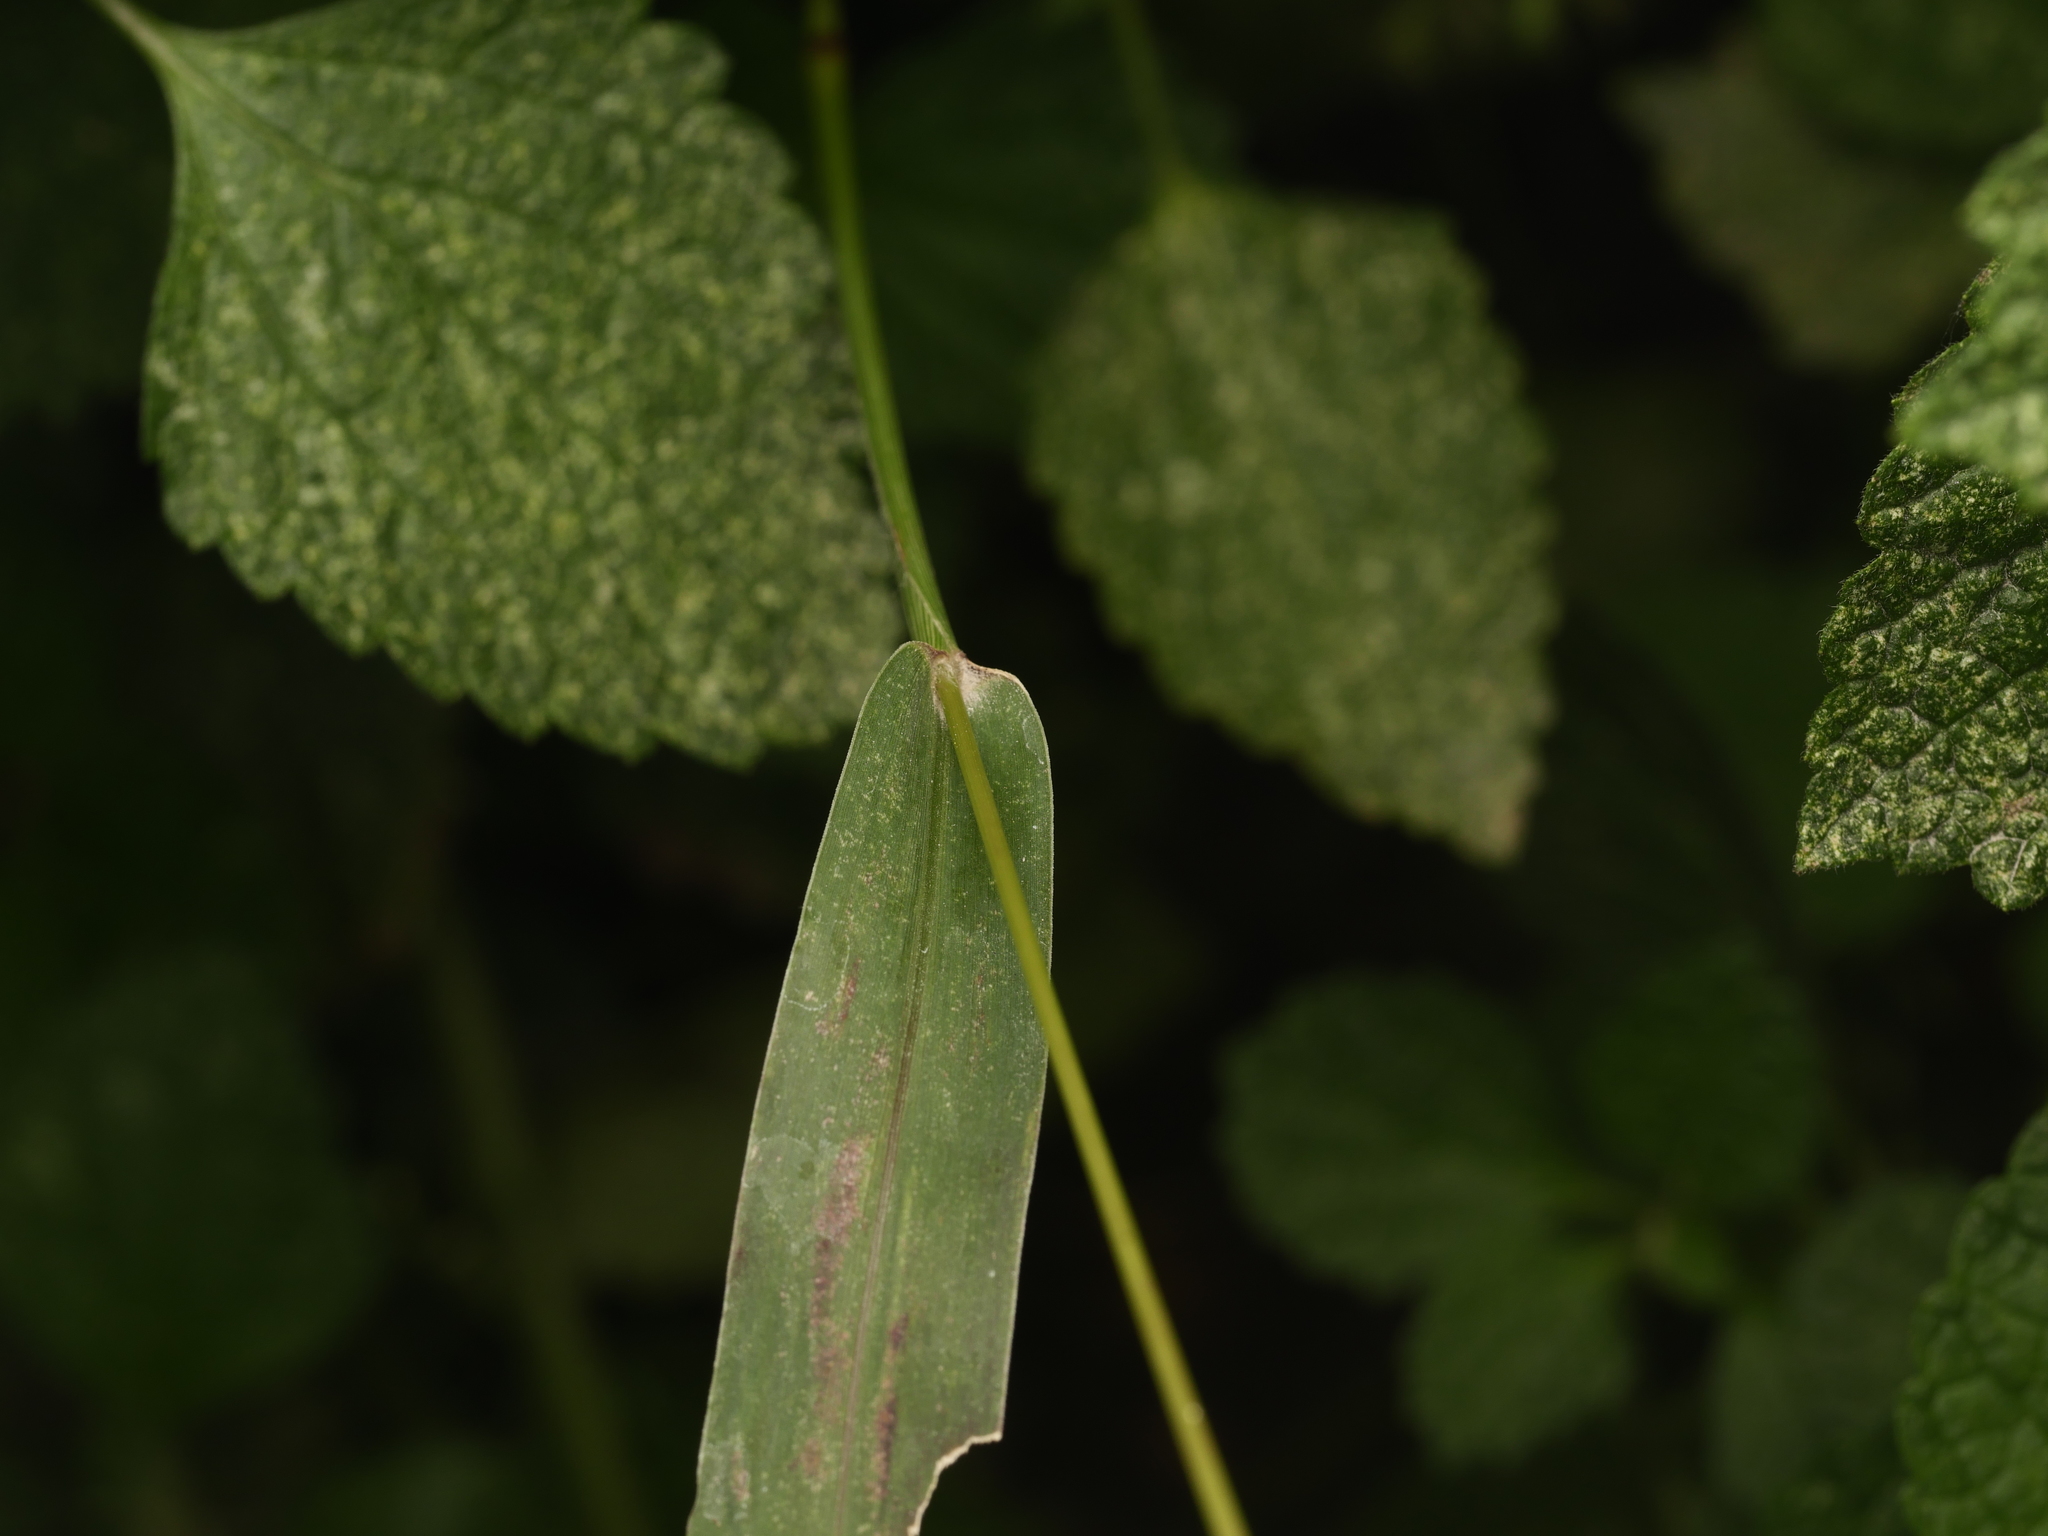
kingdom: Plantae
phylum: Tracheophyta
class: Liliopsida
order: Poales
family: Poaceae
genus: Setaria
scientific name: Setaria viridis
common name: Green bristlegrass
